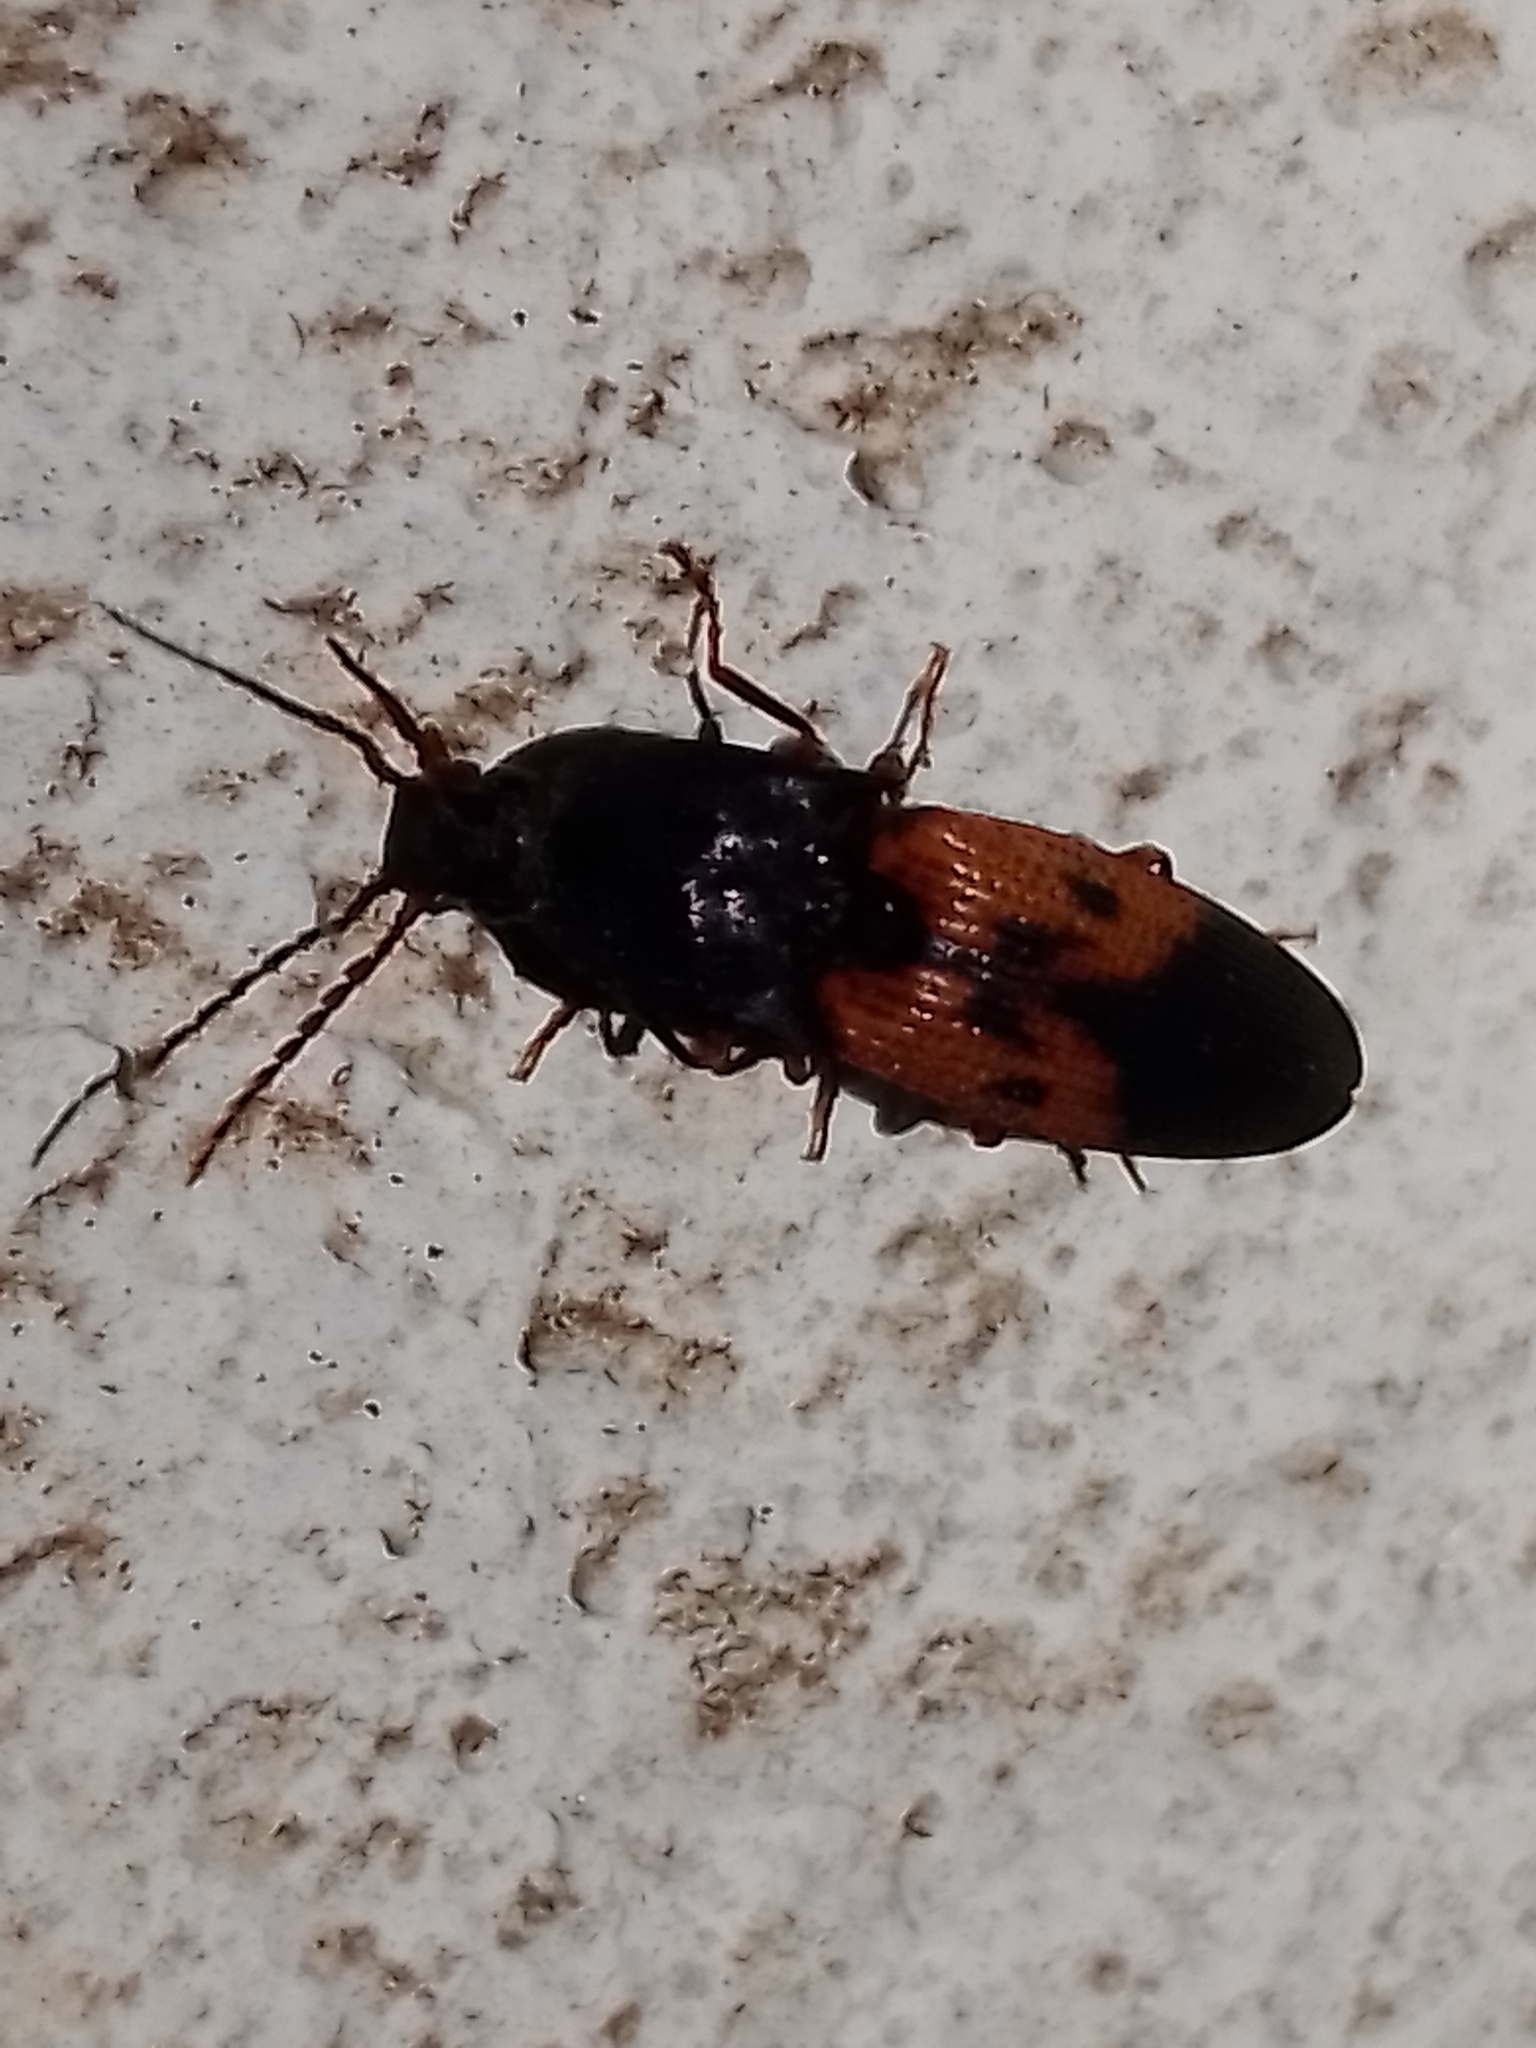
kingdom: Animalia
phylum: Arthropoda
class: Insecta
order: Coleoptera
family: Elateridae
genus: Monocrepidius
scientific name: Monocrepidius
